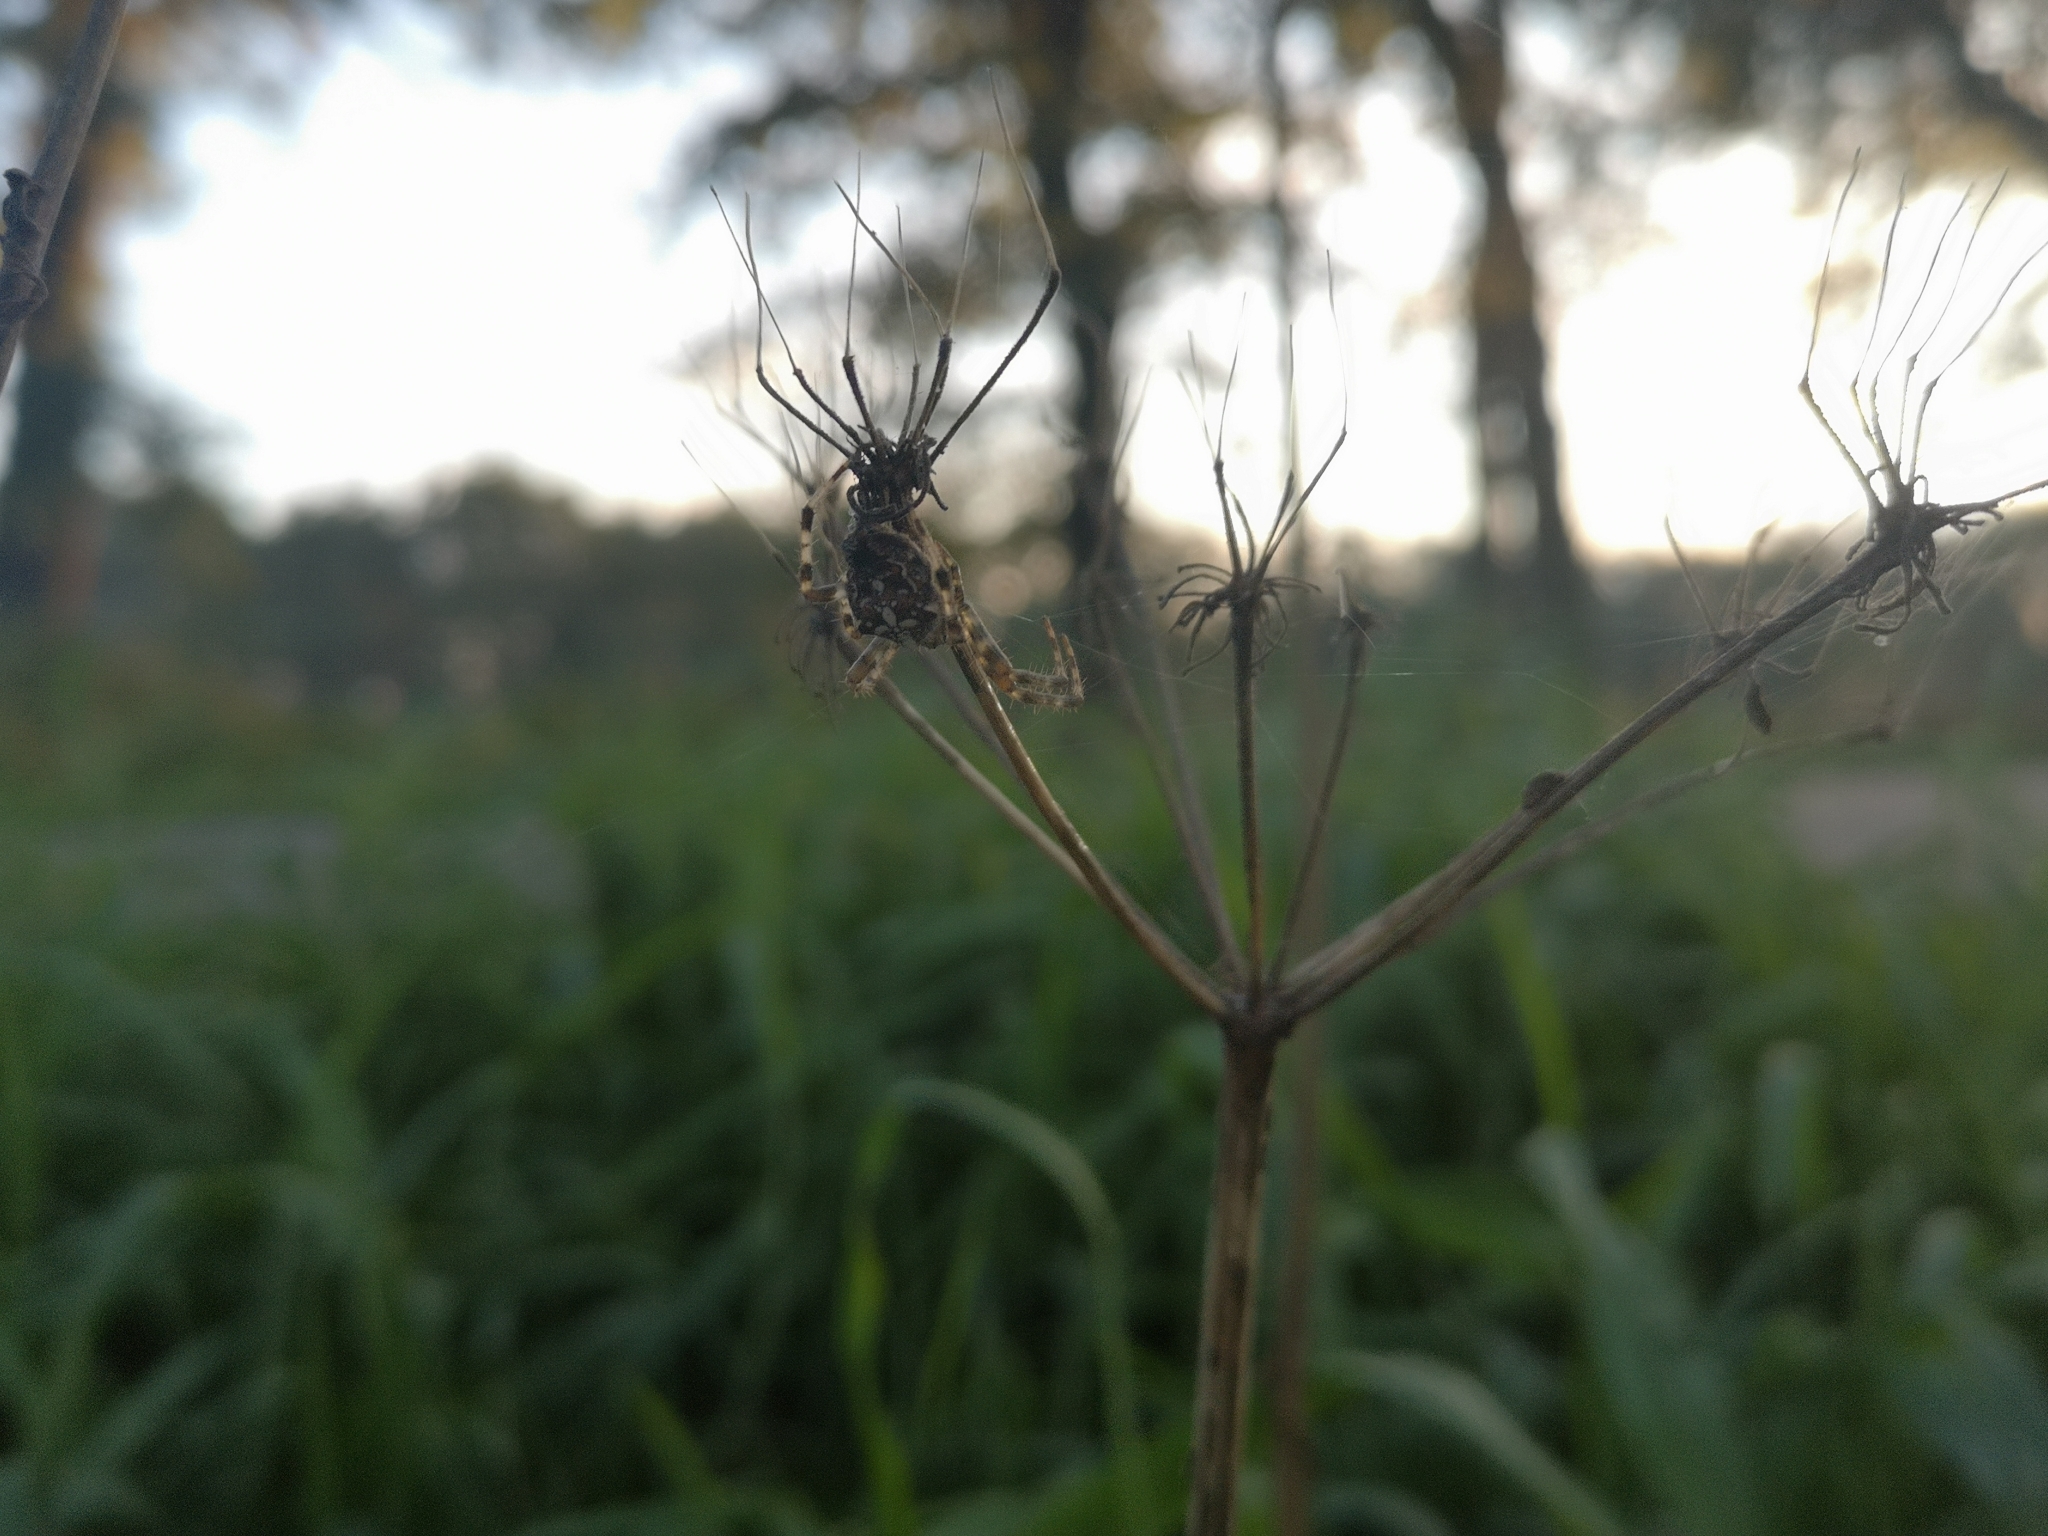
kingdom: Animalia
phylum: Arthropoda
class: Arachnida
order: Araneae
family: Araneidae
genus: Araneus
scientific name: Araneus diadematus
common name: Cross orbweaver
